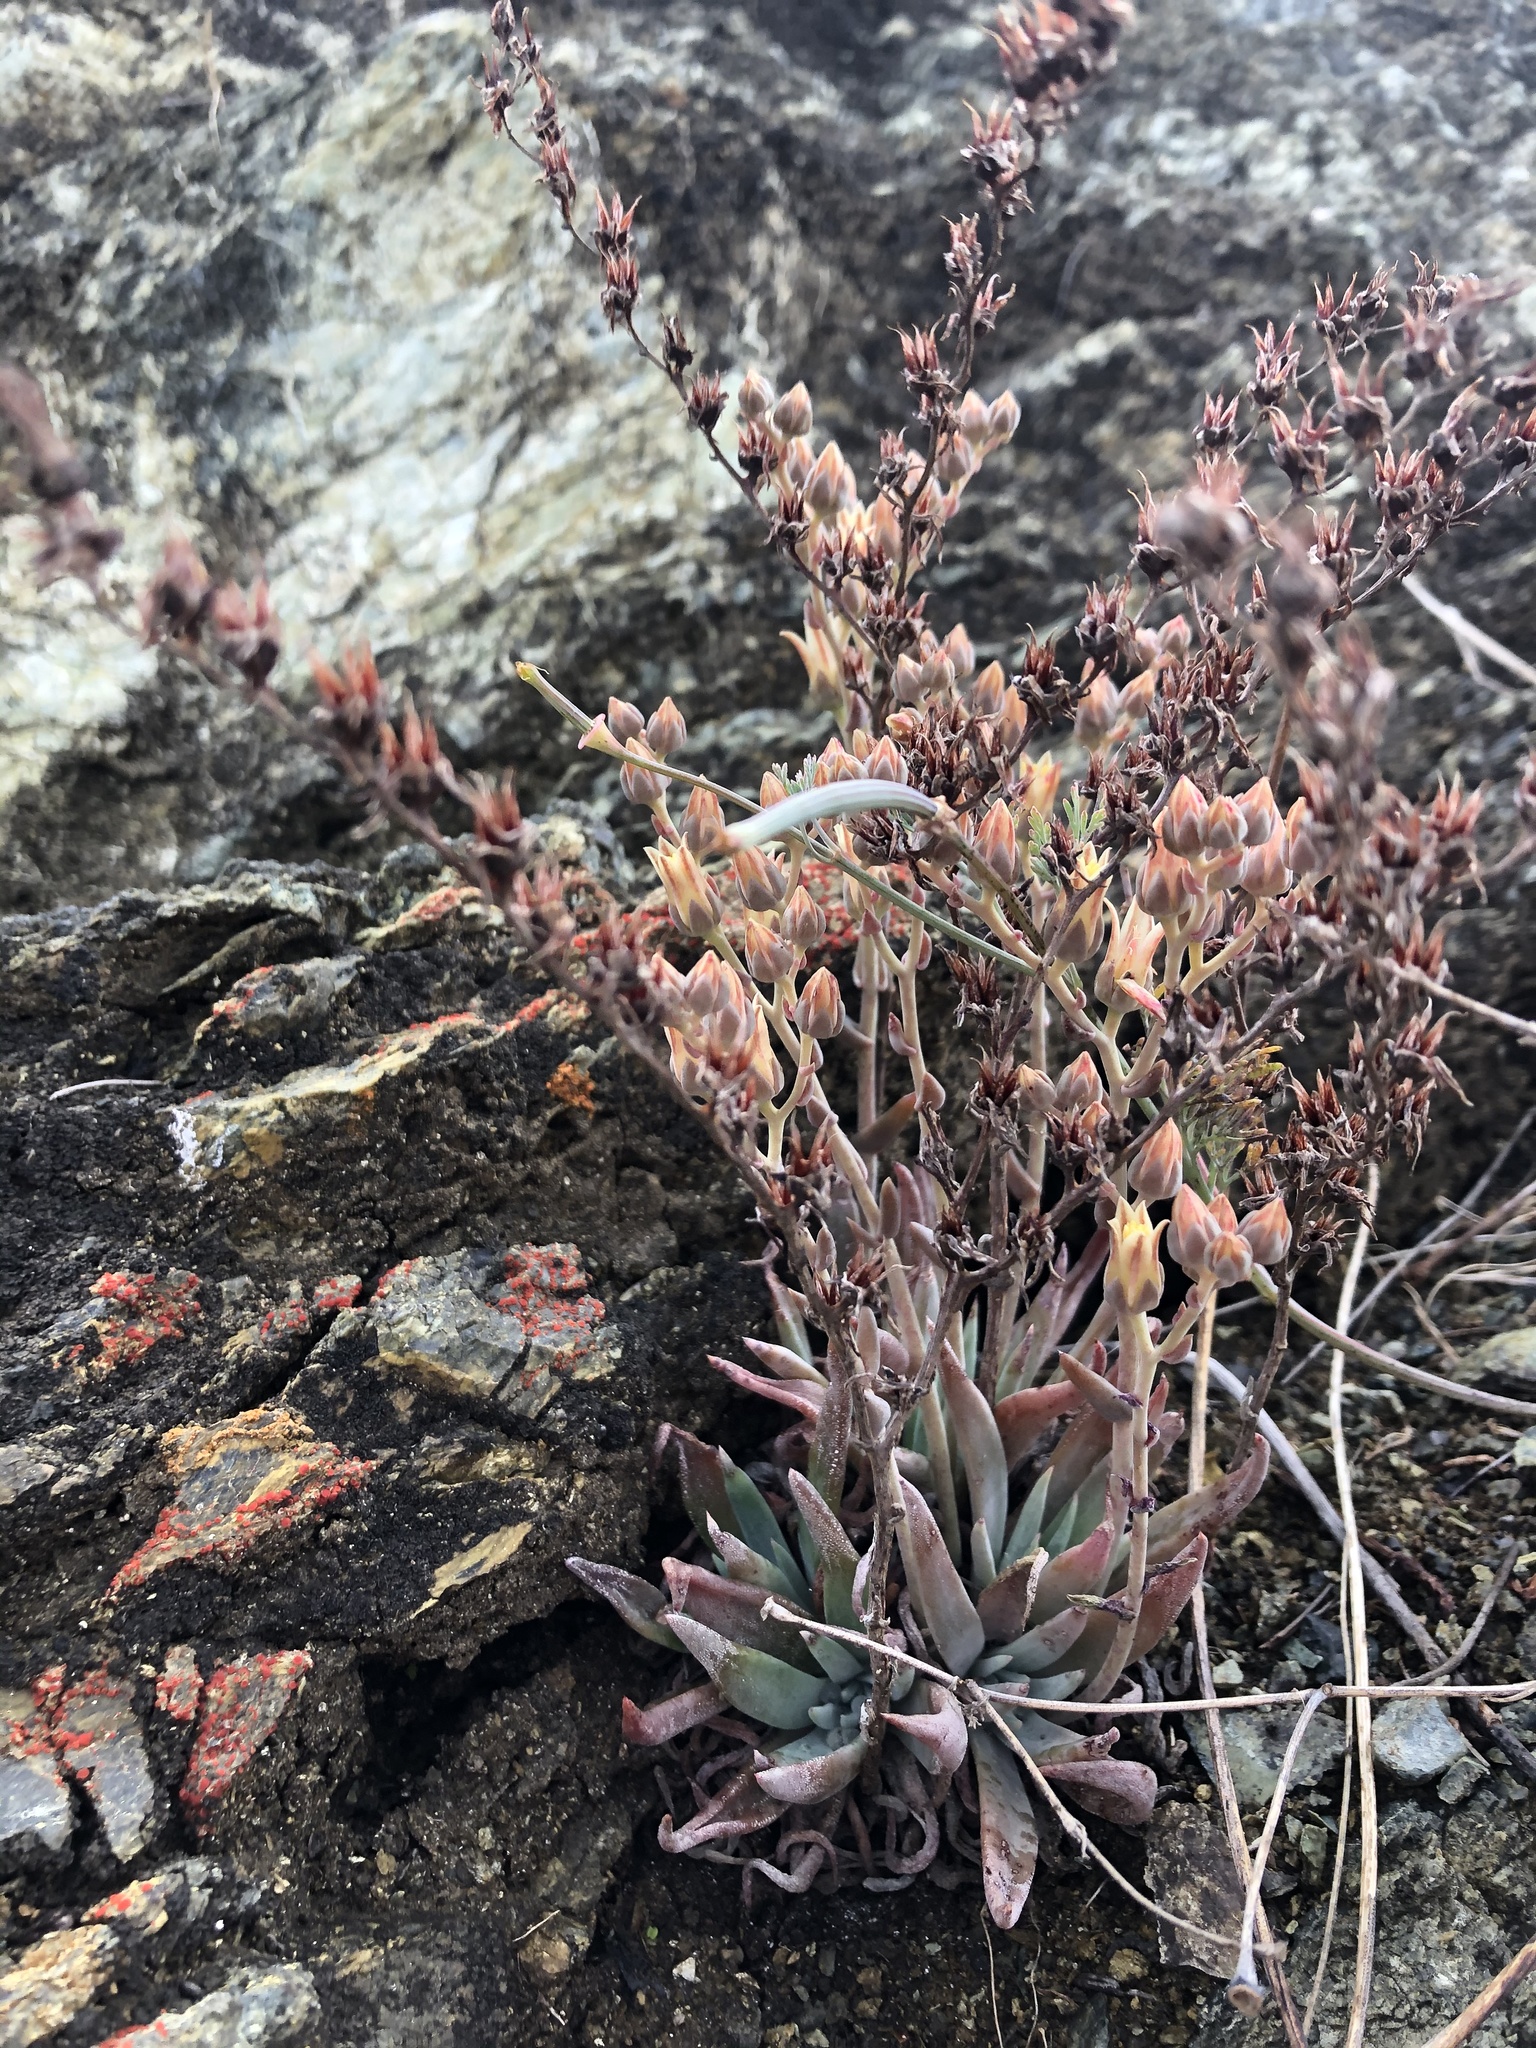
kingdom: Plantae
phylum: Tracheophyta
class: Magnoliopsida
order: Saxifragales
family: Crassulaceae
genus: Dudleya
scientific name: Dudleya abramsii
